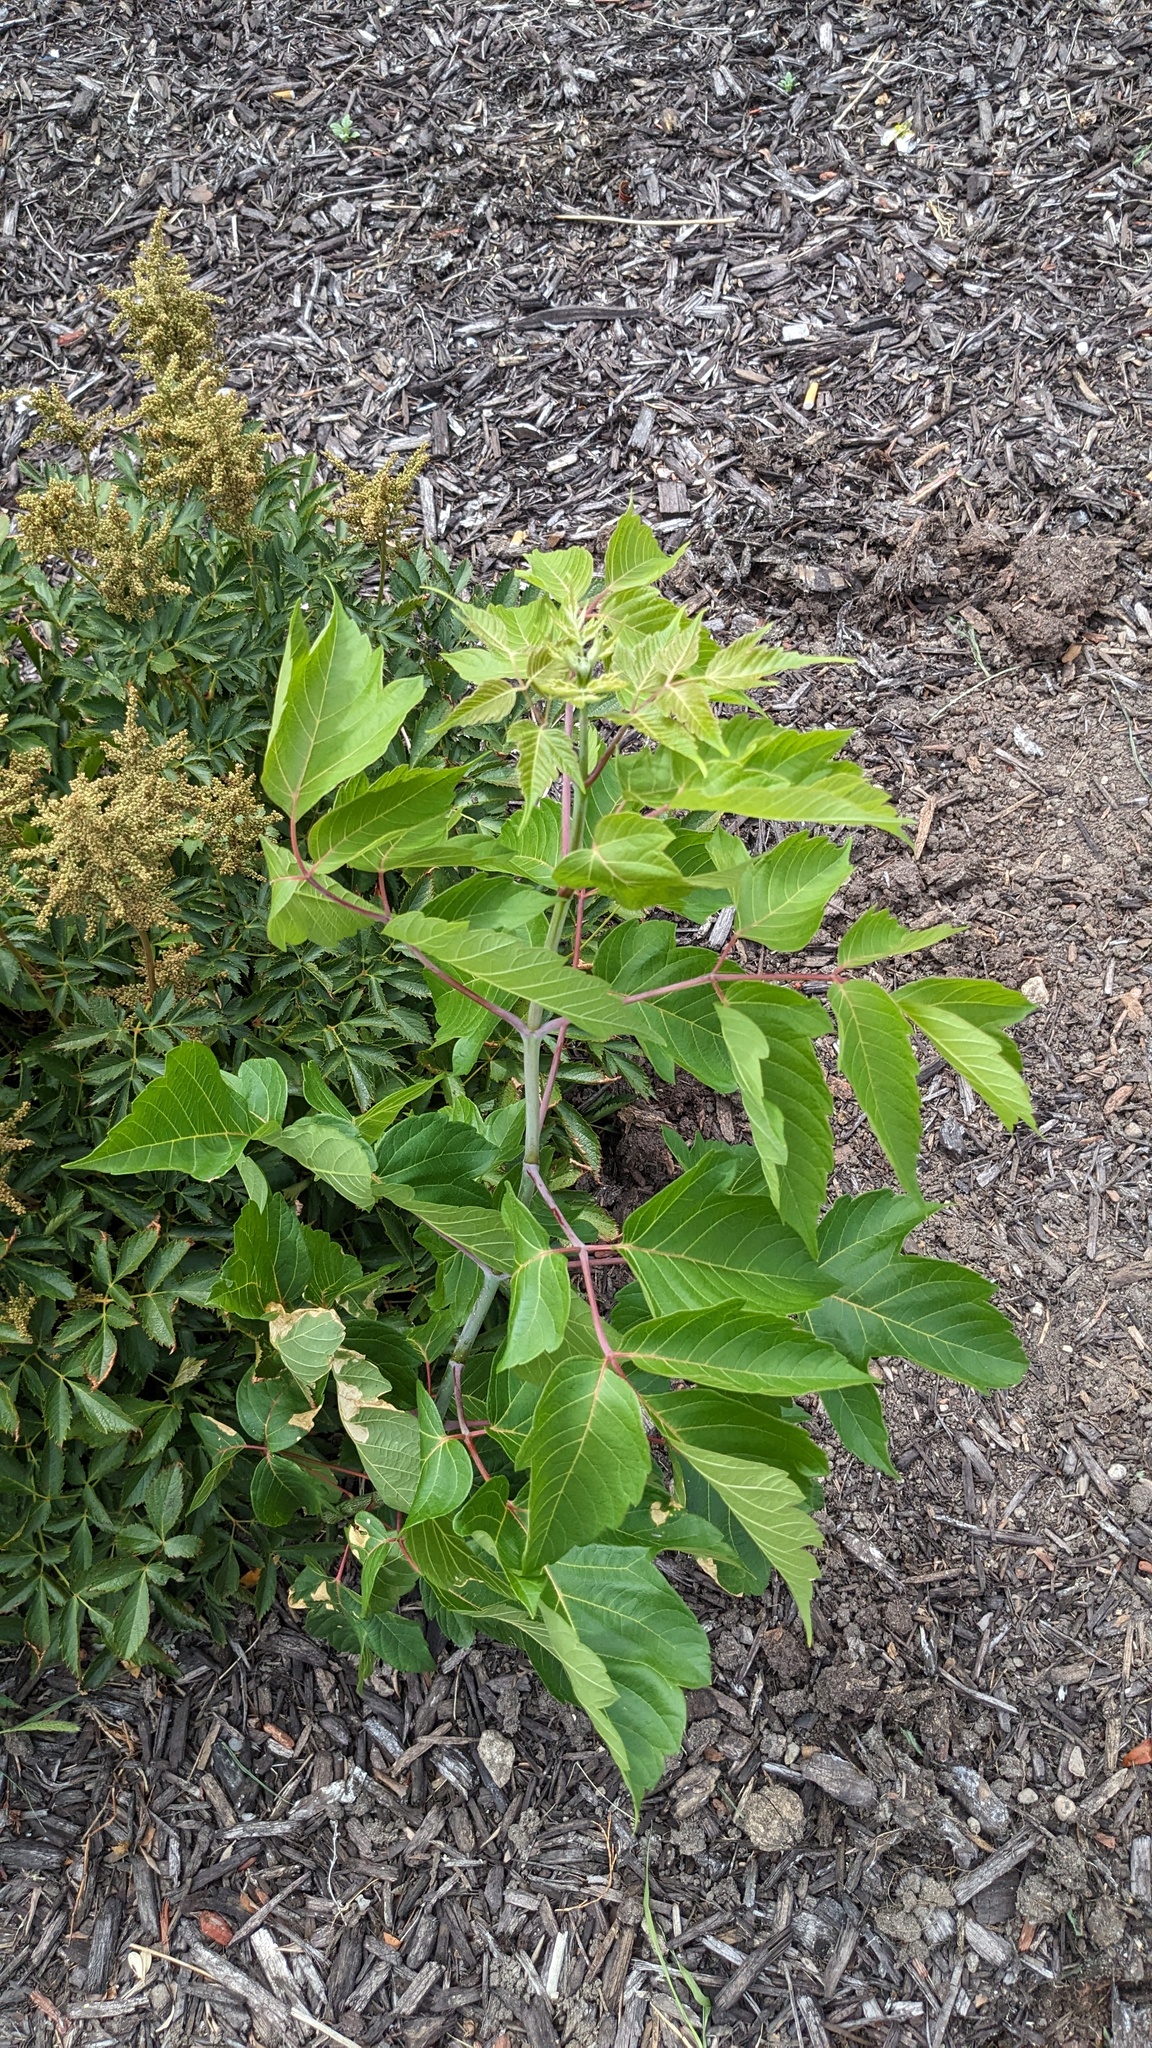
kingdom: Plantae
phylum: Tracheophyta
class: Magnoliopsida
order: Sapindales
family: Sapindaceae
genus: Acer
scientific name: Acer negundo
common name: Ashleaf maple
